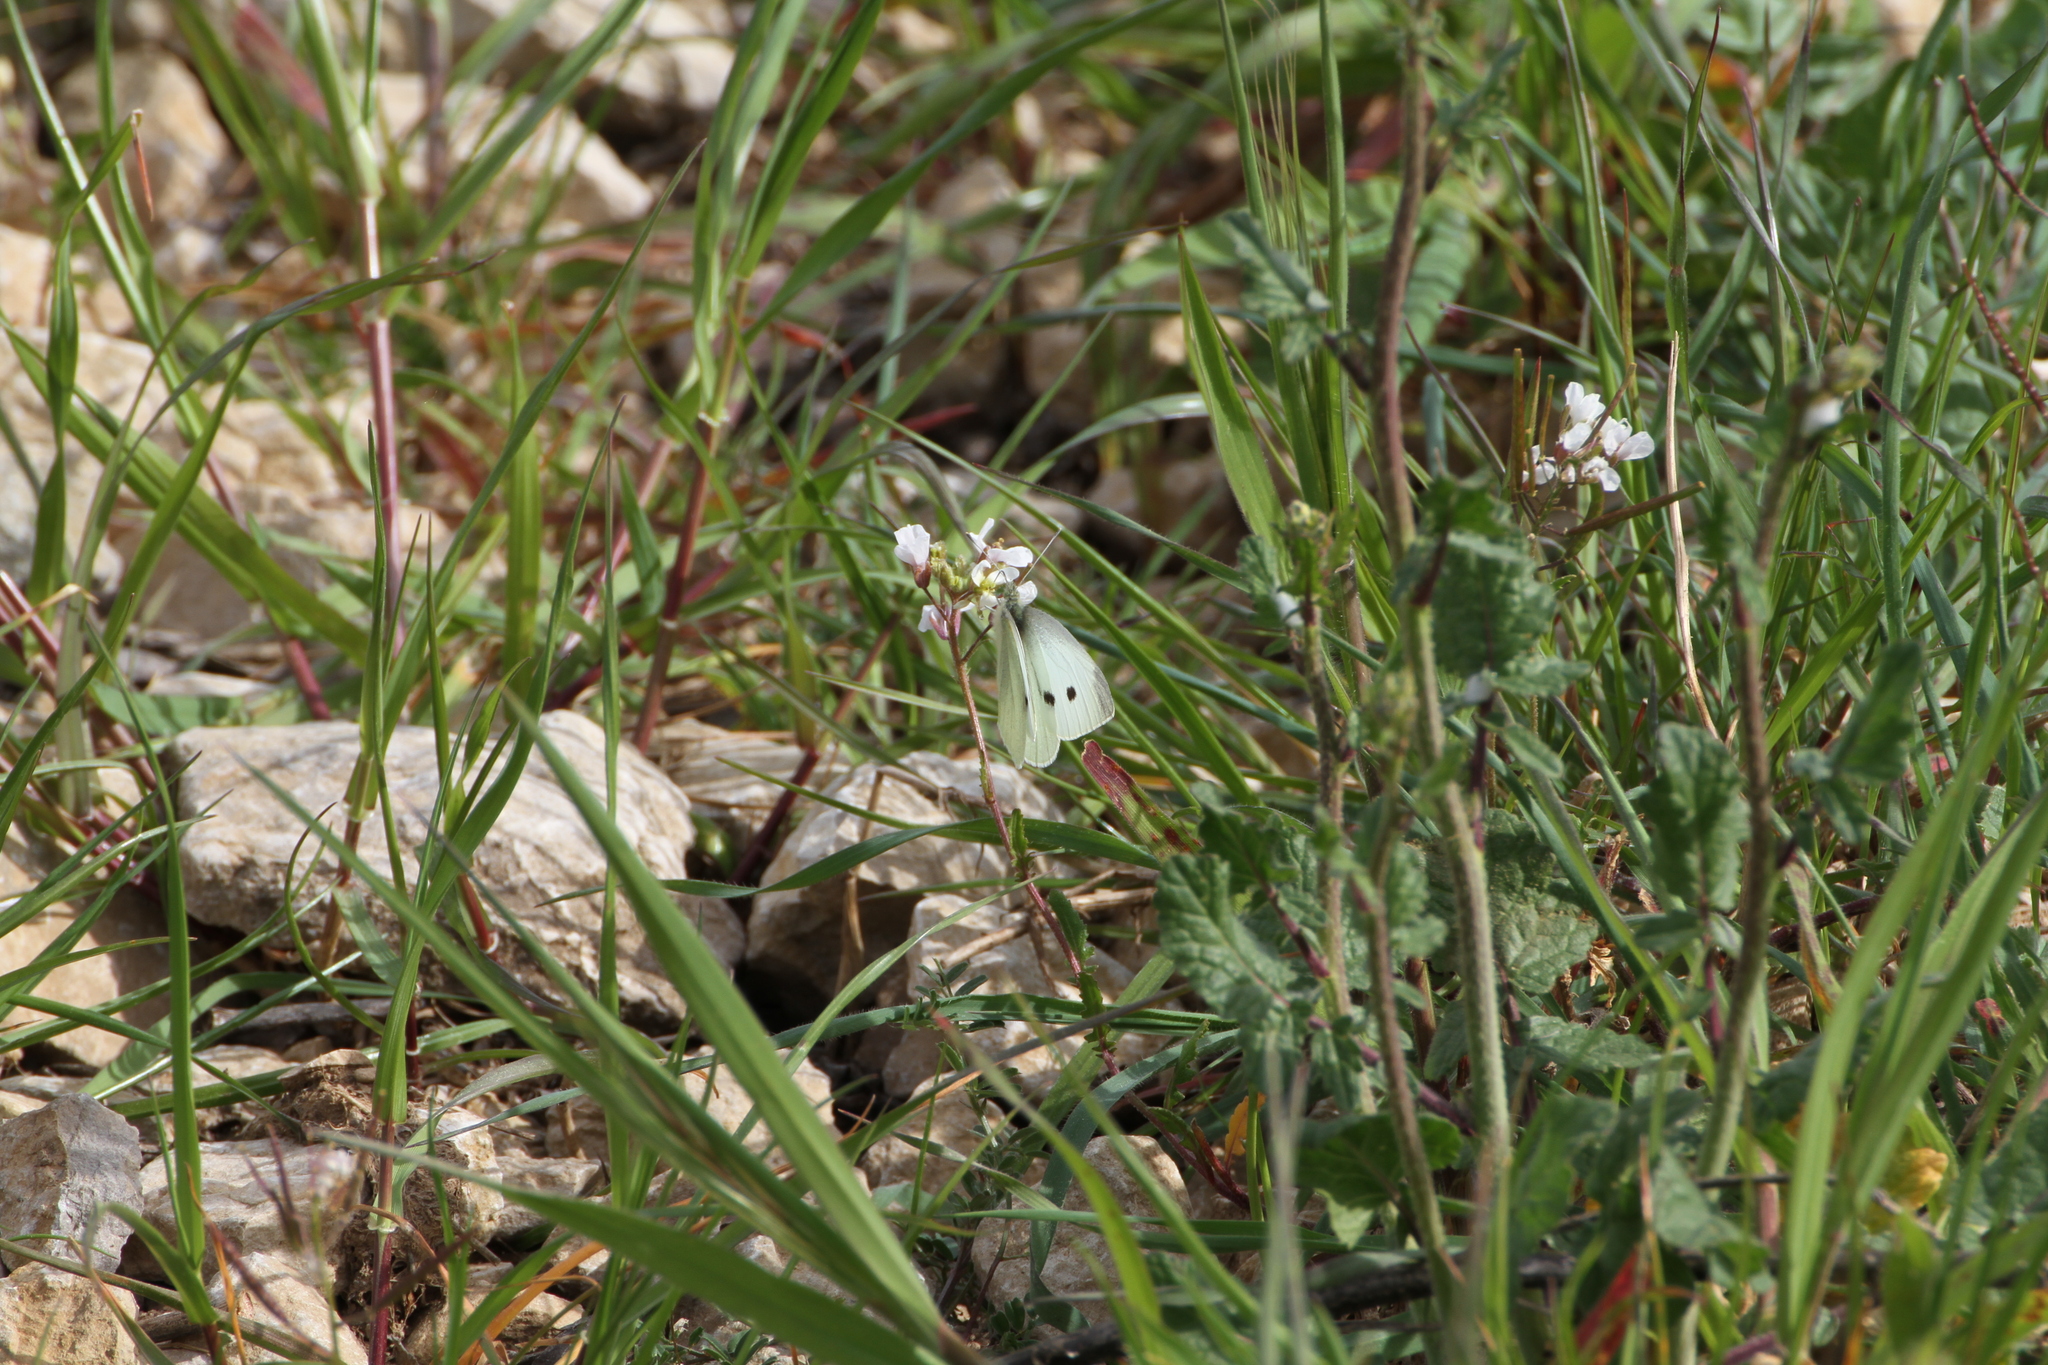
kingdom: Animalia
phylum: Arthropoda
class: Insecta
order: Lepidoptera
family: Pieridae
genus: Pieris
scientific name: Pieris rapae
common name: Small white
